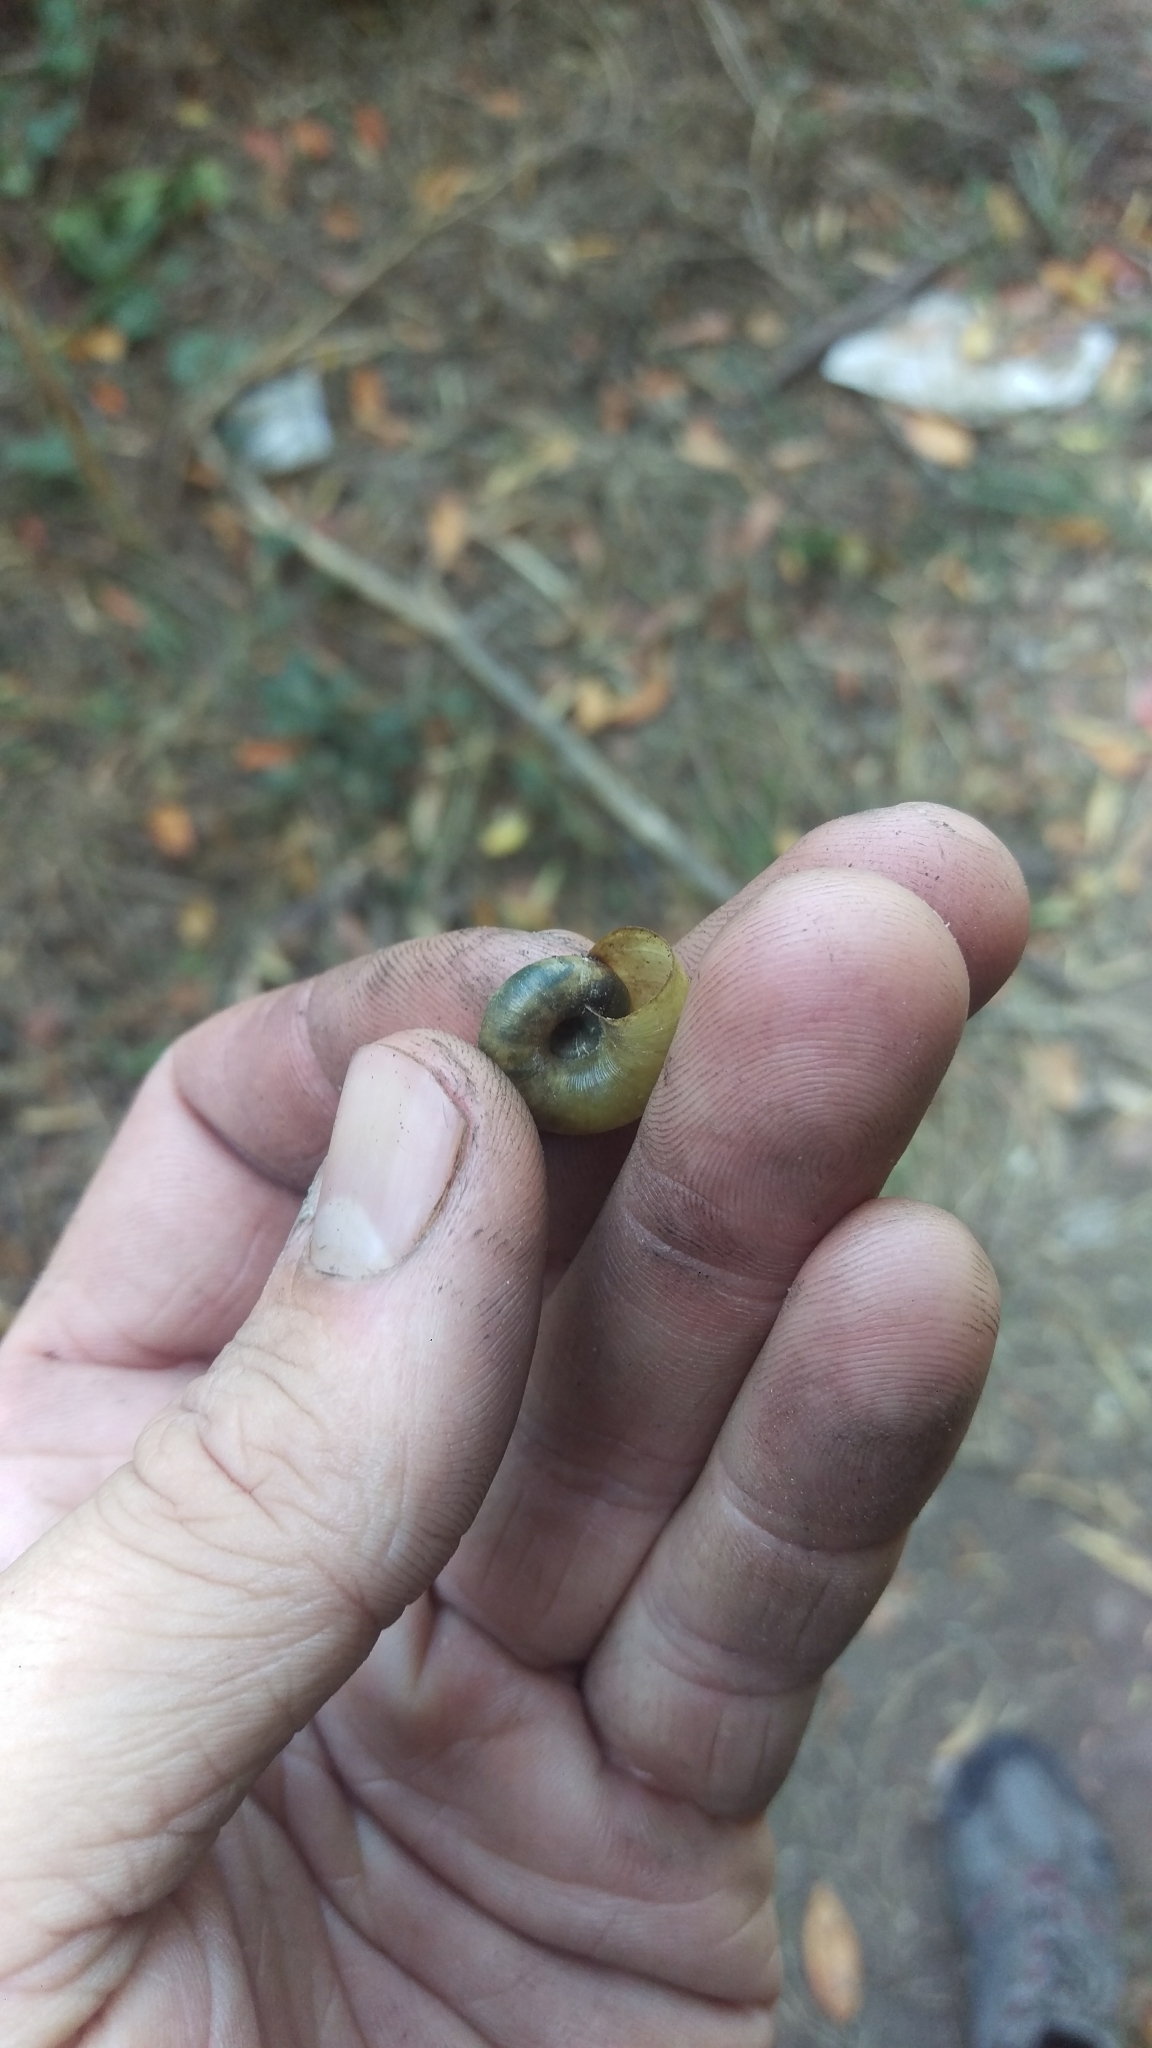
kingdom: Animalia
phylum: Mollusca
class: Gastropoda
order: Stylommatophora
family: Haplotrematidae
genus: Haplotrema
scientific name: Haplotrema minimum
